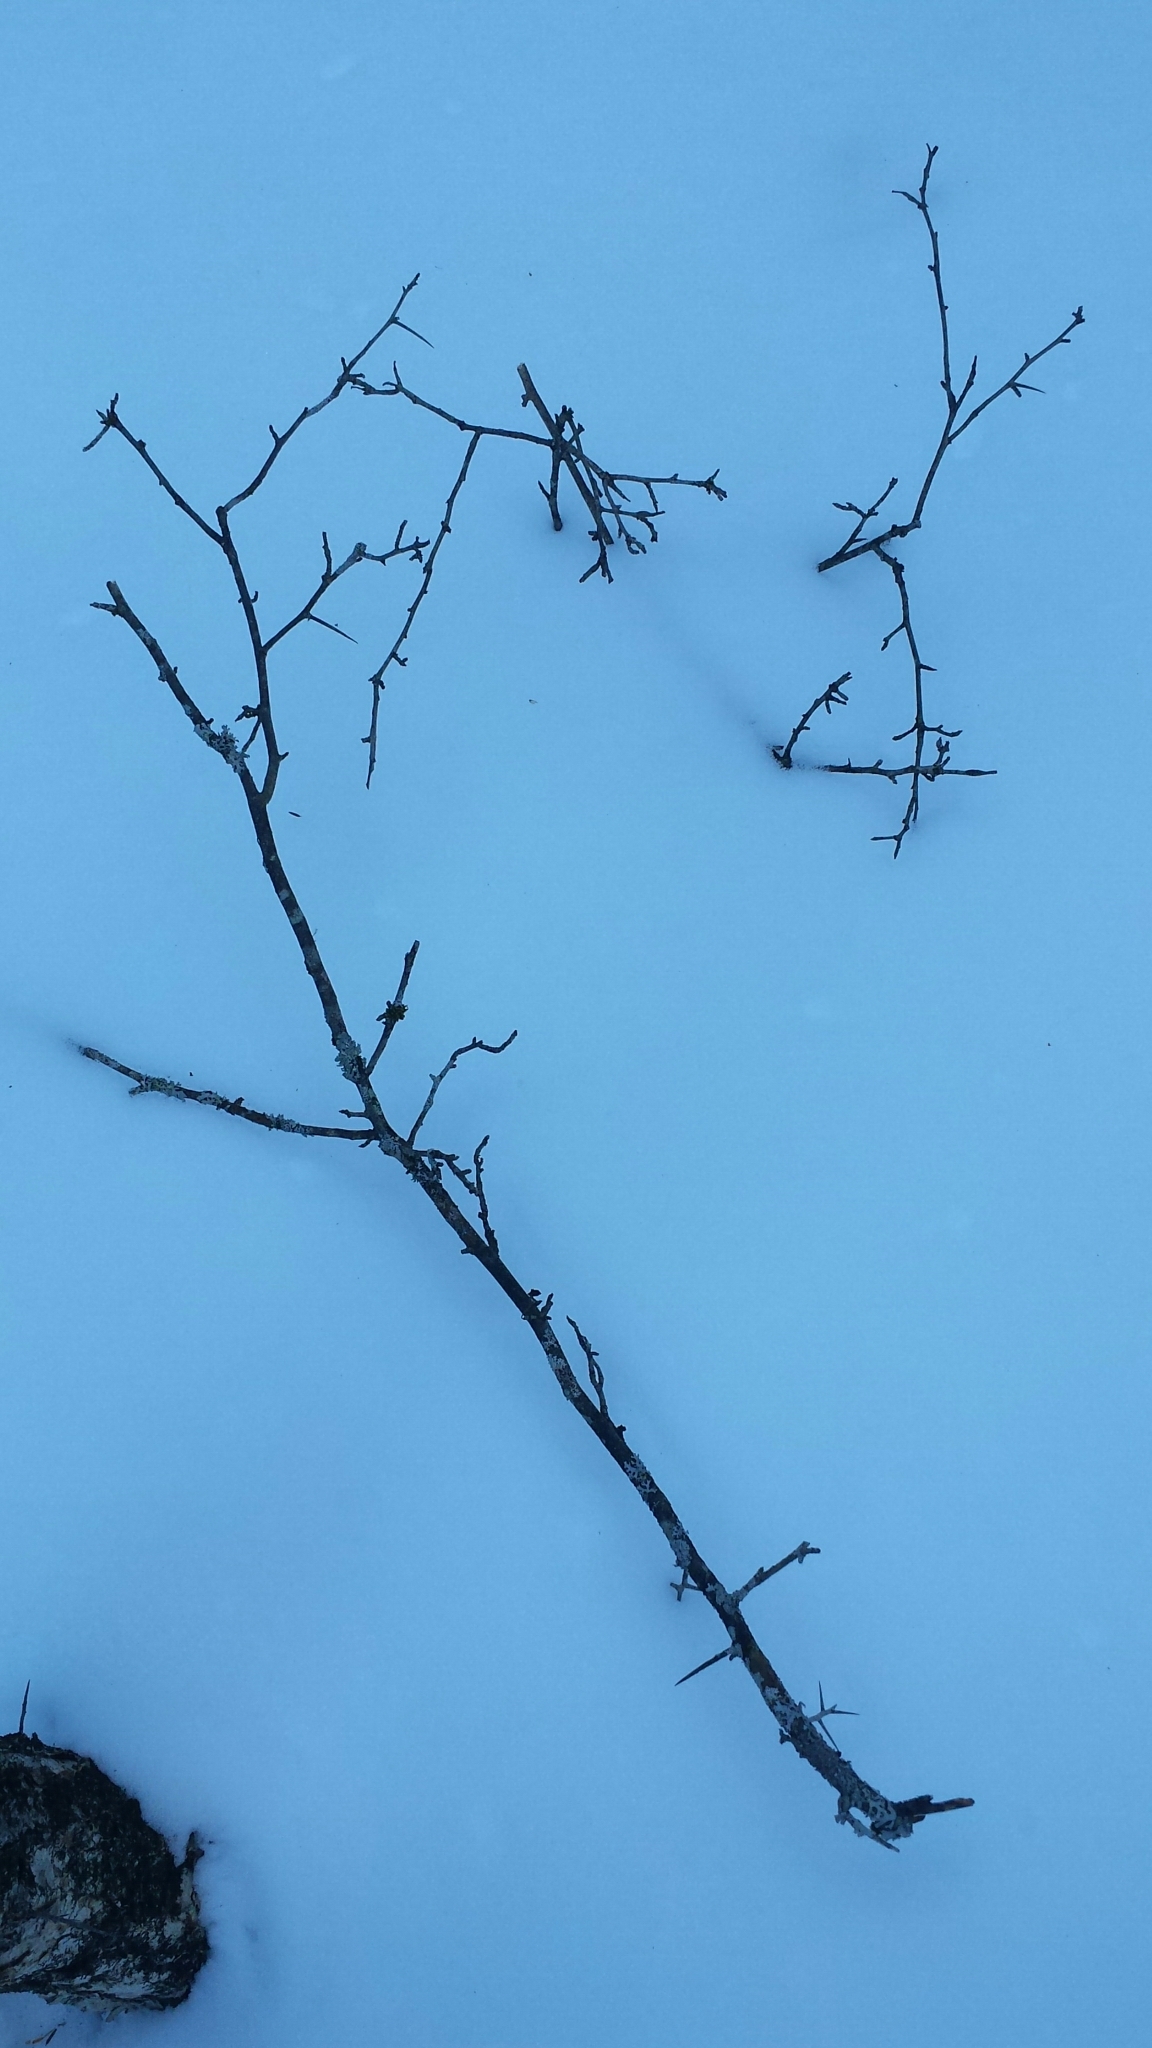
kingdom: Plantae
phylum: Tracheophyta
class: Magnoliopsida
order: Rosales
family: Rosaceae
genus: Crataegus
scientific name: Crataegus
